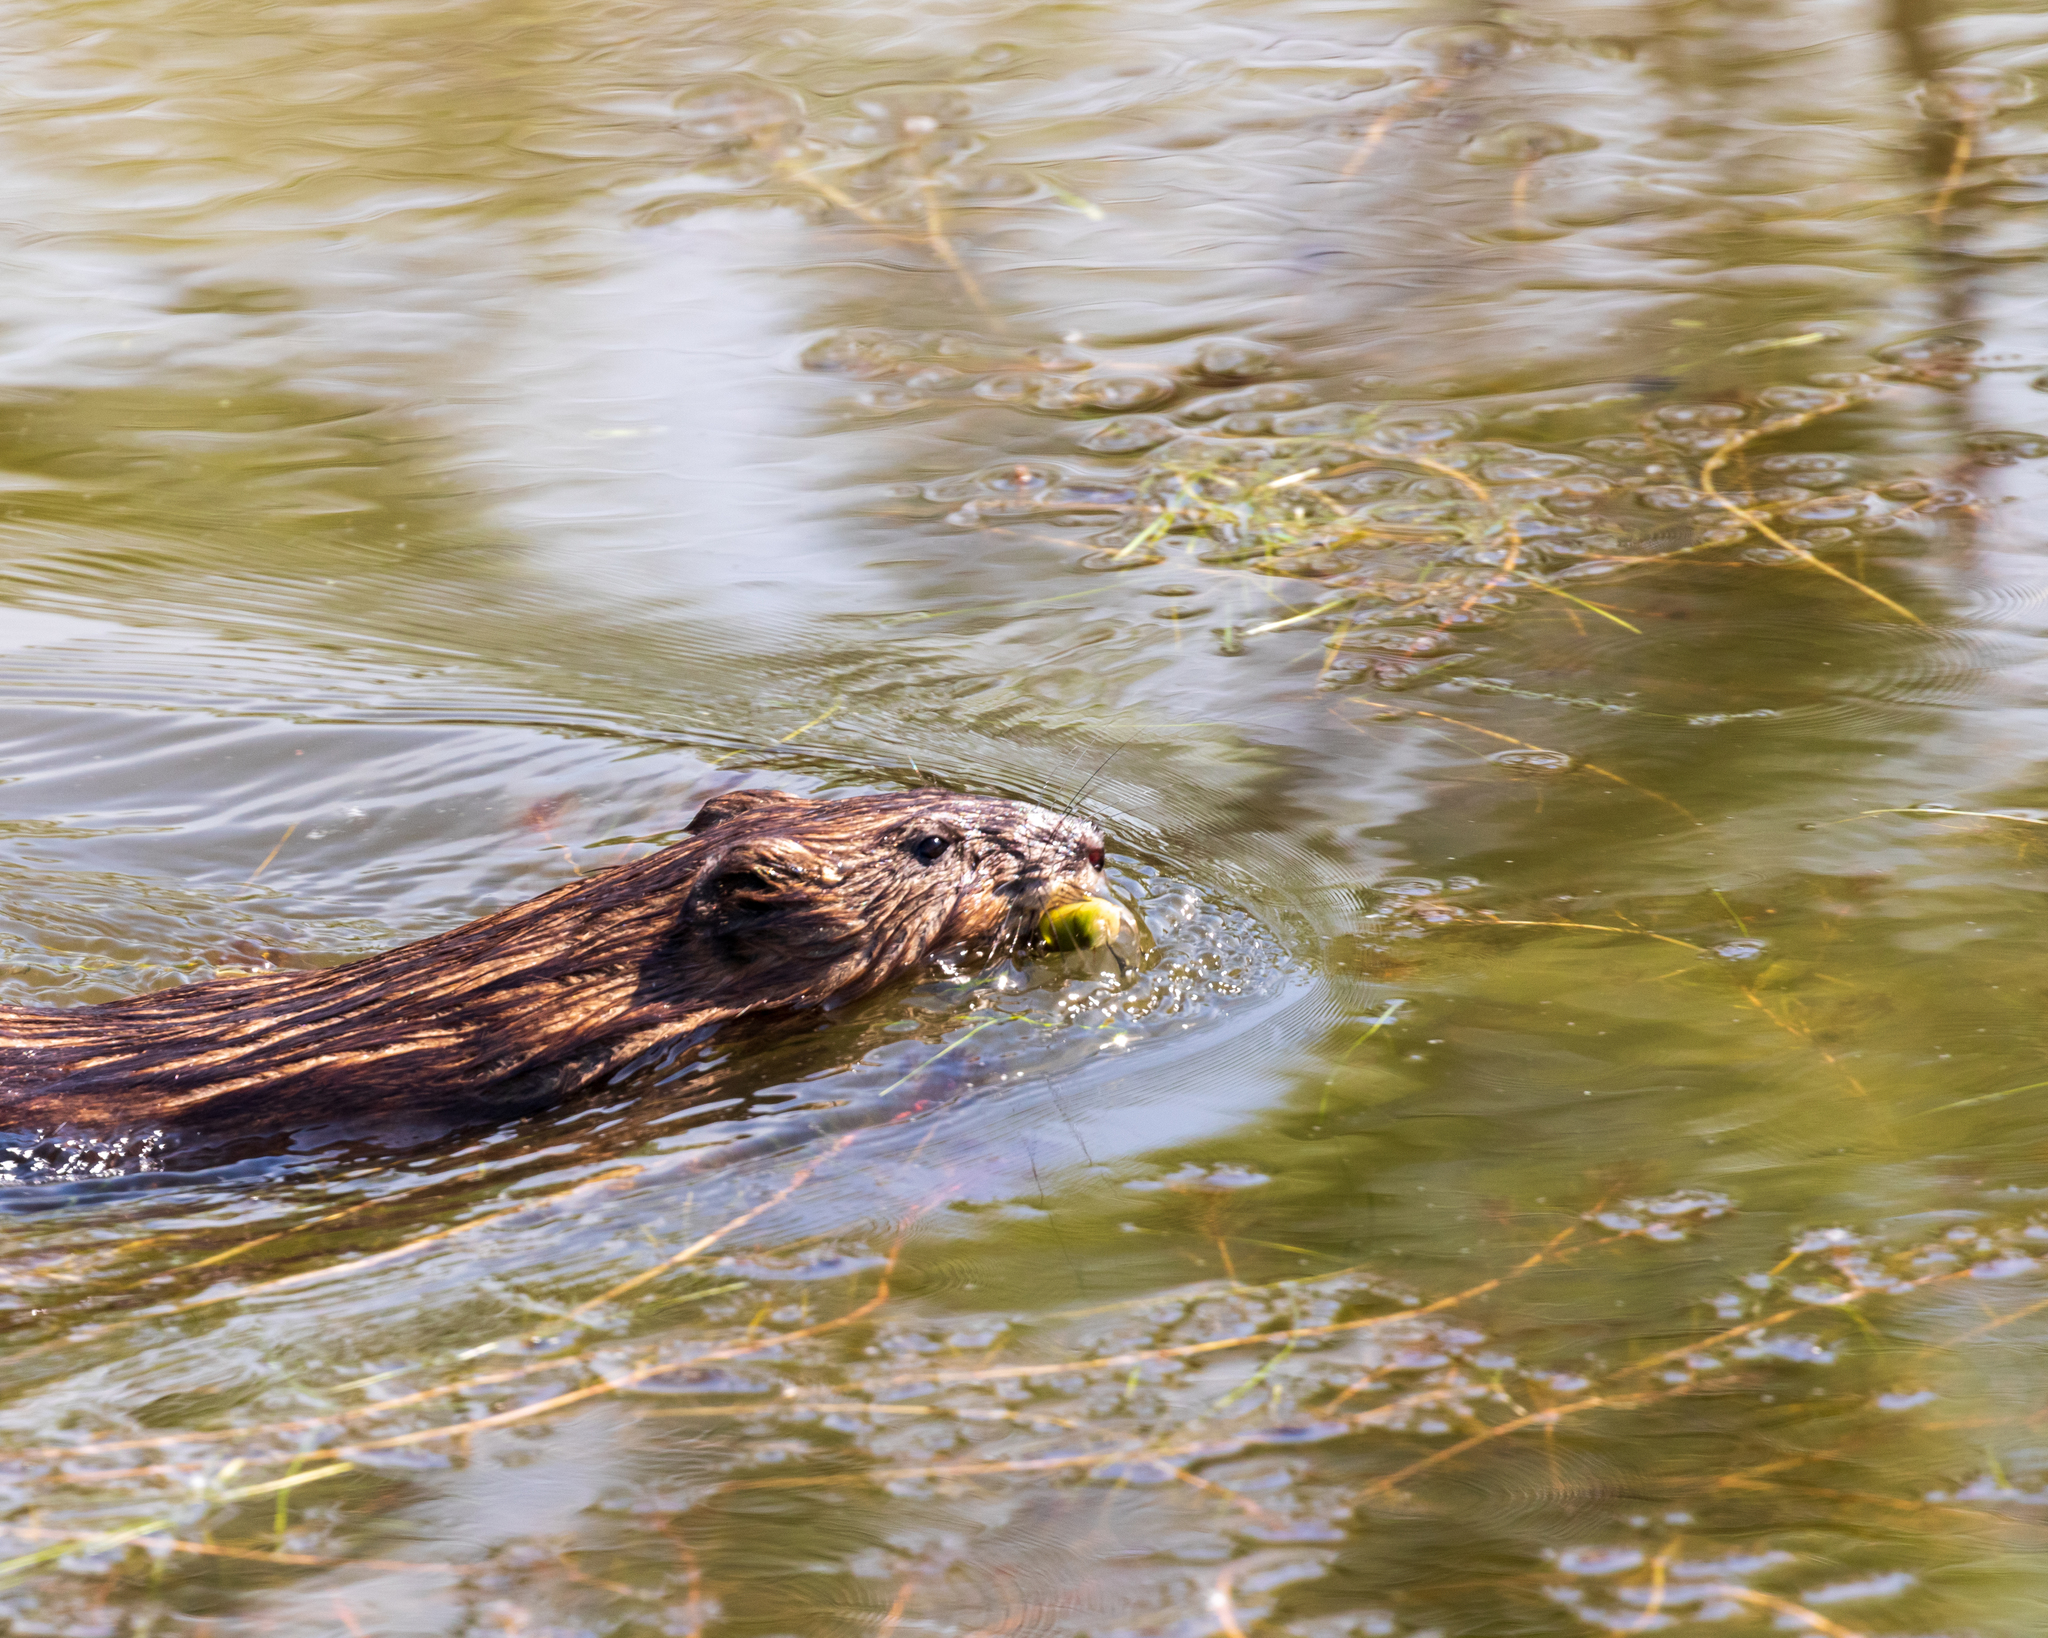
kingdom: Animalia
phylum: Chordata
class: Mammalia
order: Rodentia
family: Cricetidae
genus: Ondatra
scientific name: Ondatra zibethicus
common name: Muskrat
